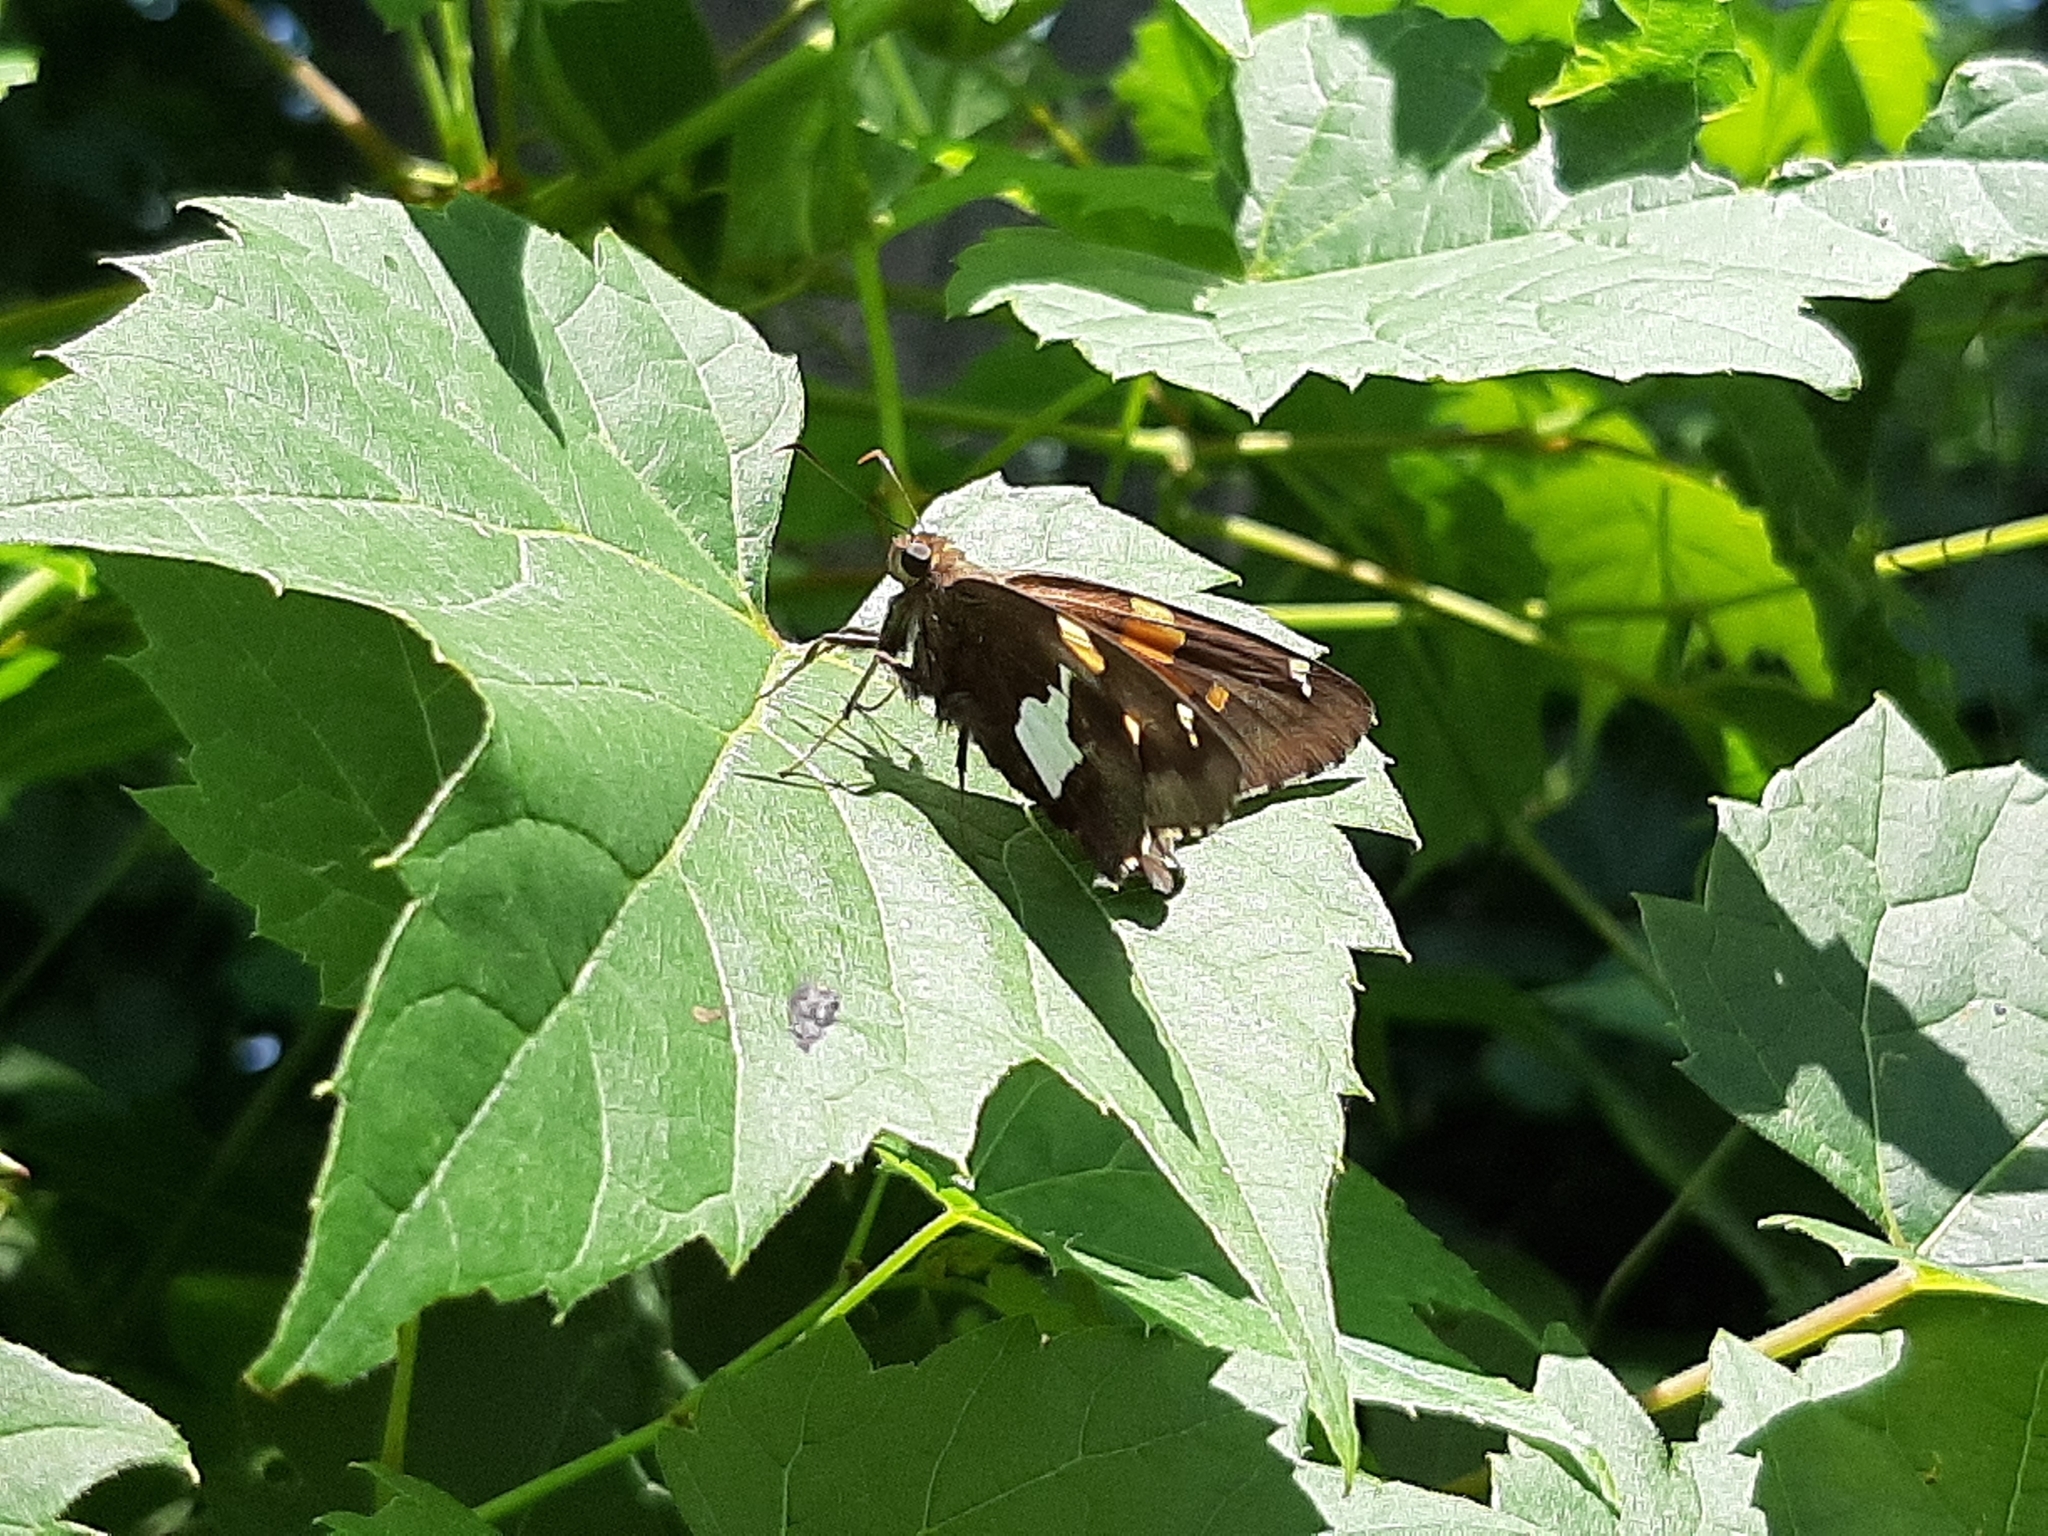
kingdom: Animalia
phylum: Arthropoda
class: Insecta
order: Lepidoptera
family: Hesperiidae
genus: Epargyreus
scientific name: Epargyreus clarus
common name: Silver-spotted skipper
